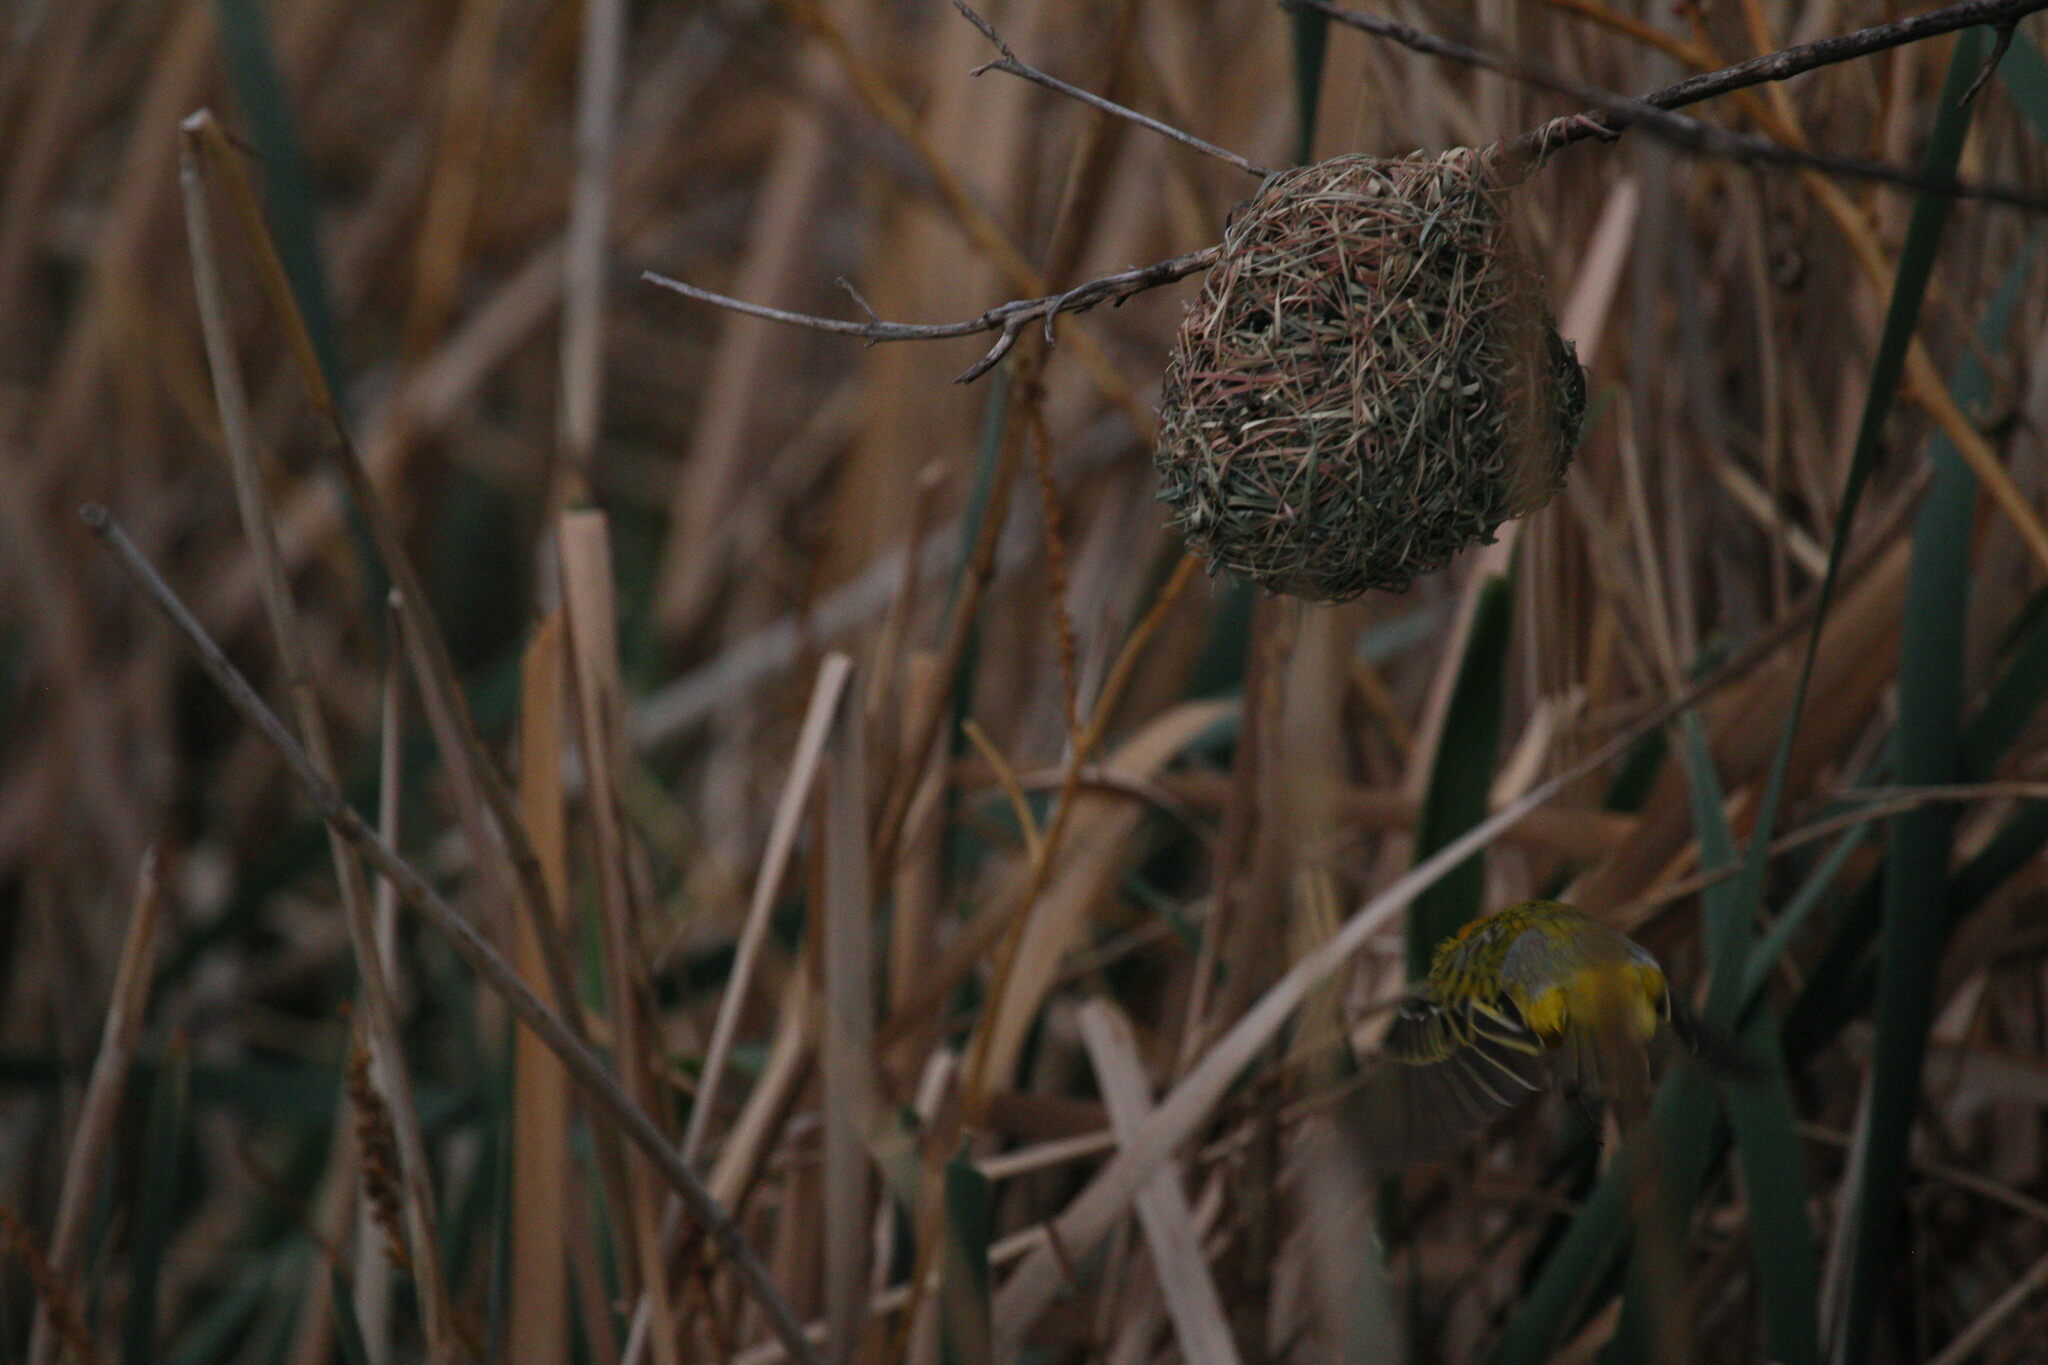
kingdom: Animalia
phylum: Chordata
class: Aves
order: Passeriformes
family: Ploceidae
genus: Ploceus
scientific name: Ploceus velatus
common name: Southern masked weaver
